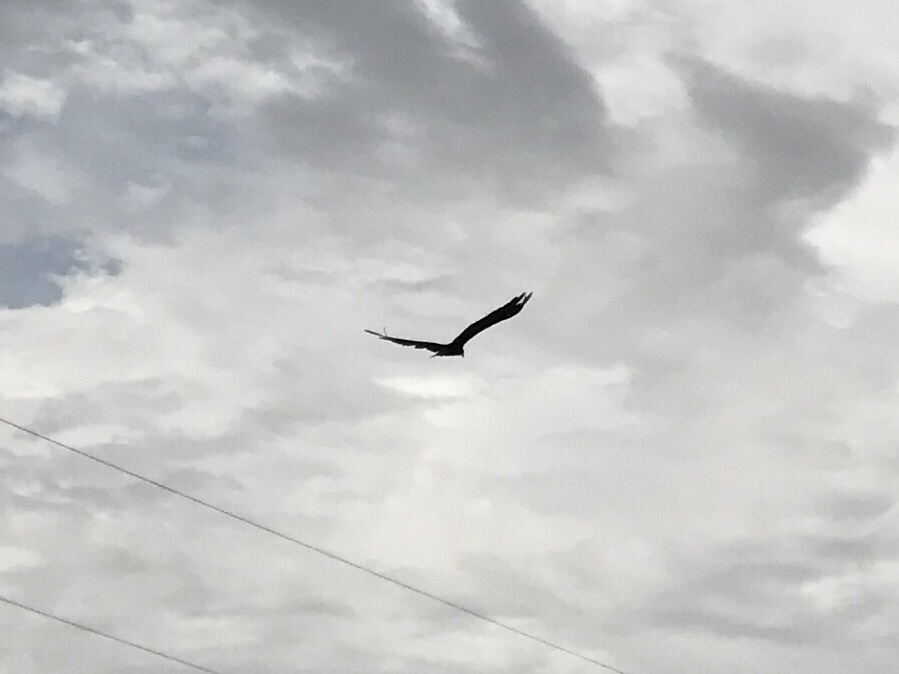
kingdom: Animalia
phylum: Chordata
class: Aves
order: Accipitriformes
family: Cathartidae
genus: Cathartes
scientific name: Cathartes aura
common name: Turkey vulture
